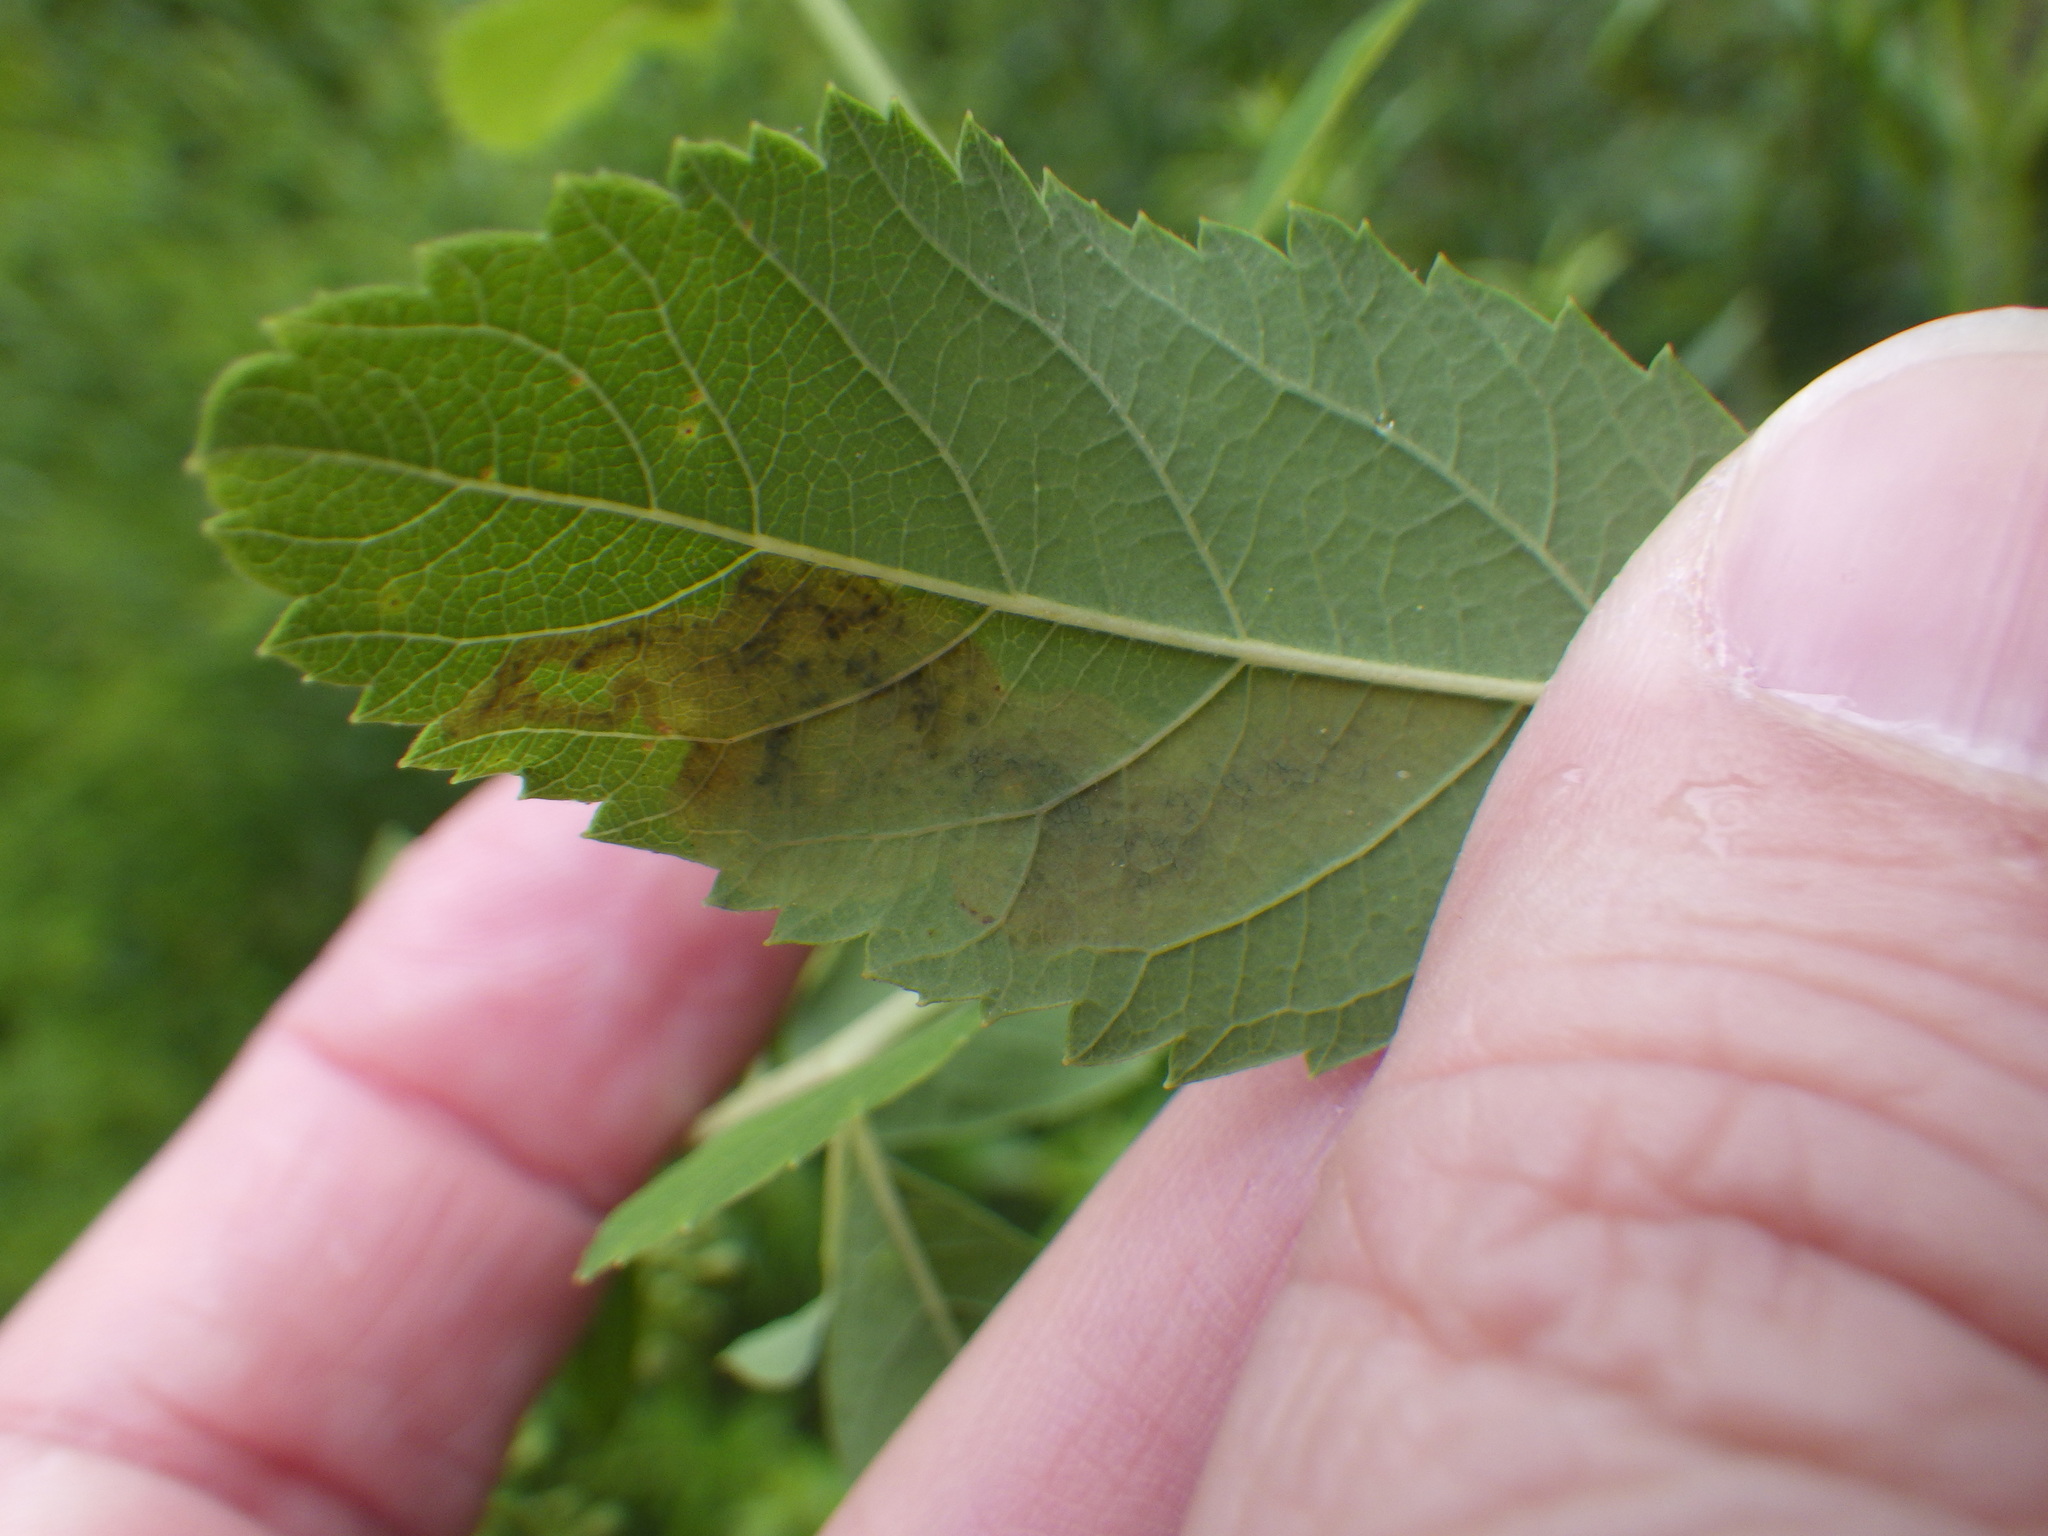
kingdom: Animalia
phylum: Arthropoda
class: Insecta
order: Diptera
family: Agromyzidae
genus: Agromyza
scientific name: Agromyza valdorensis
